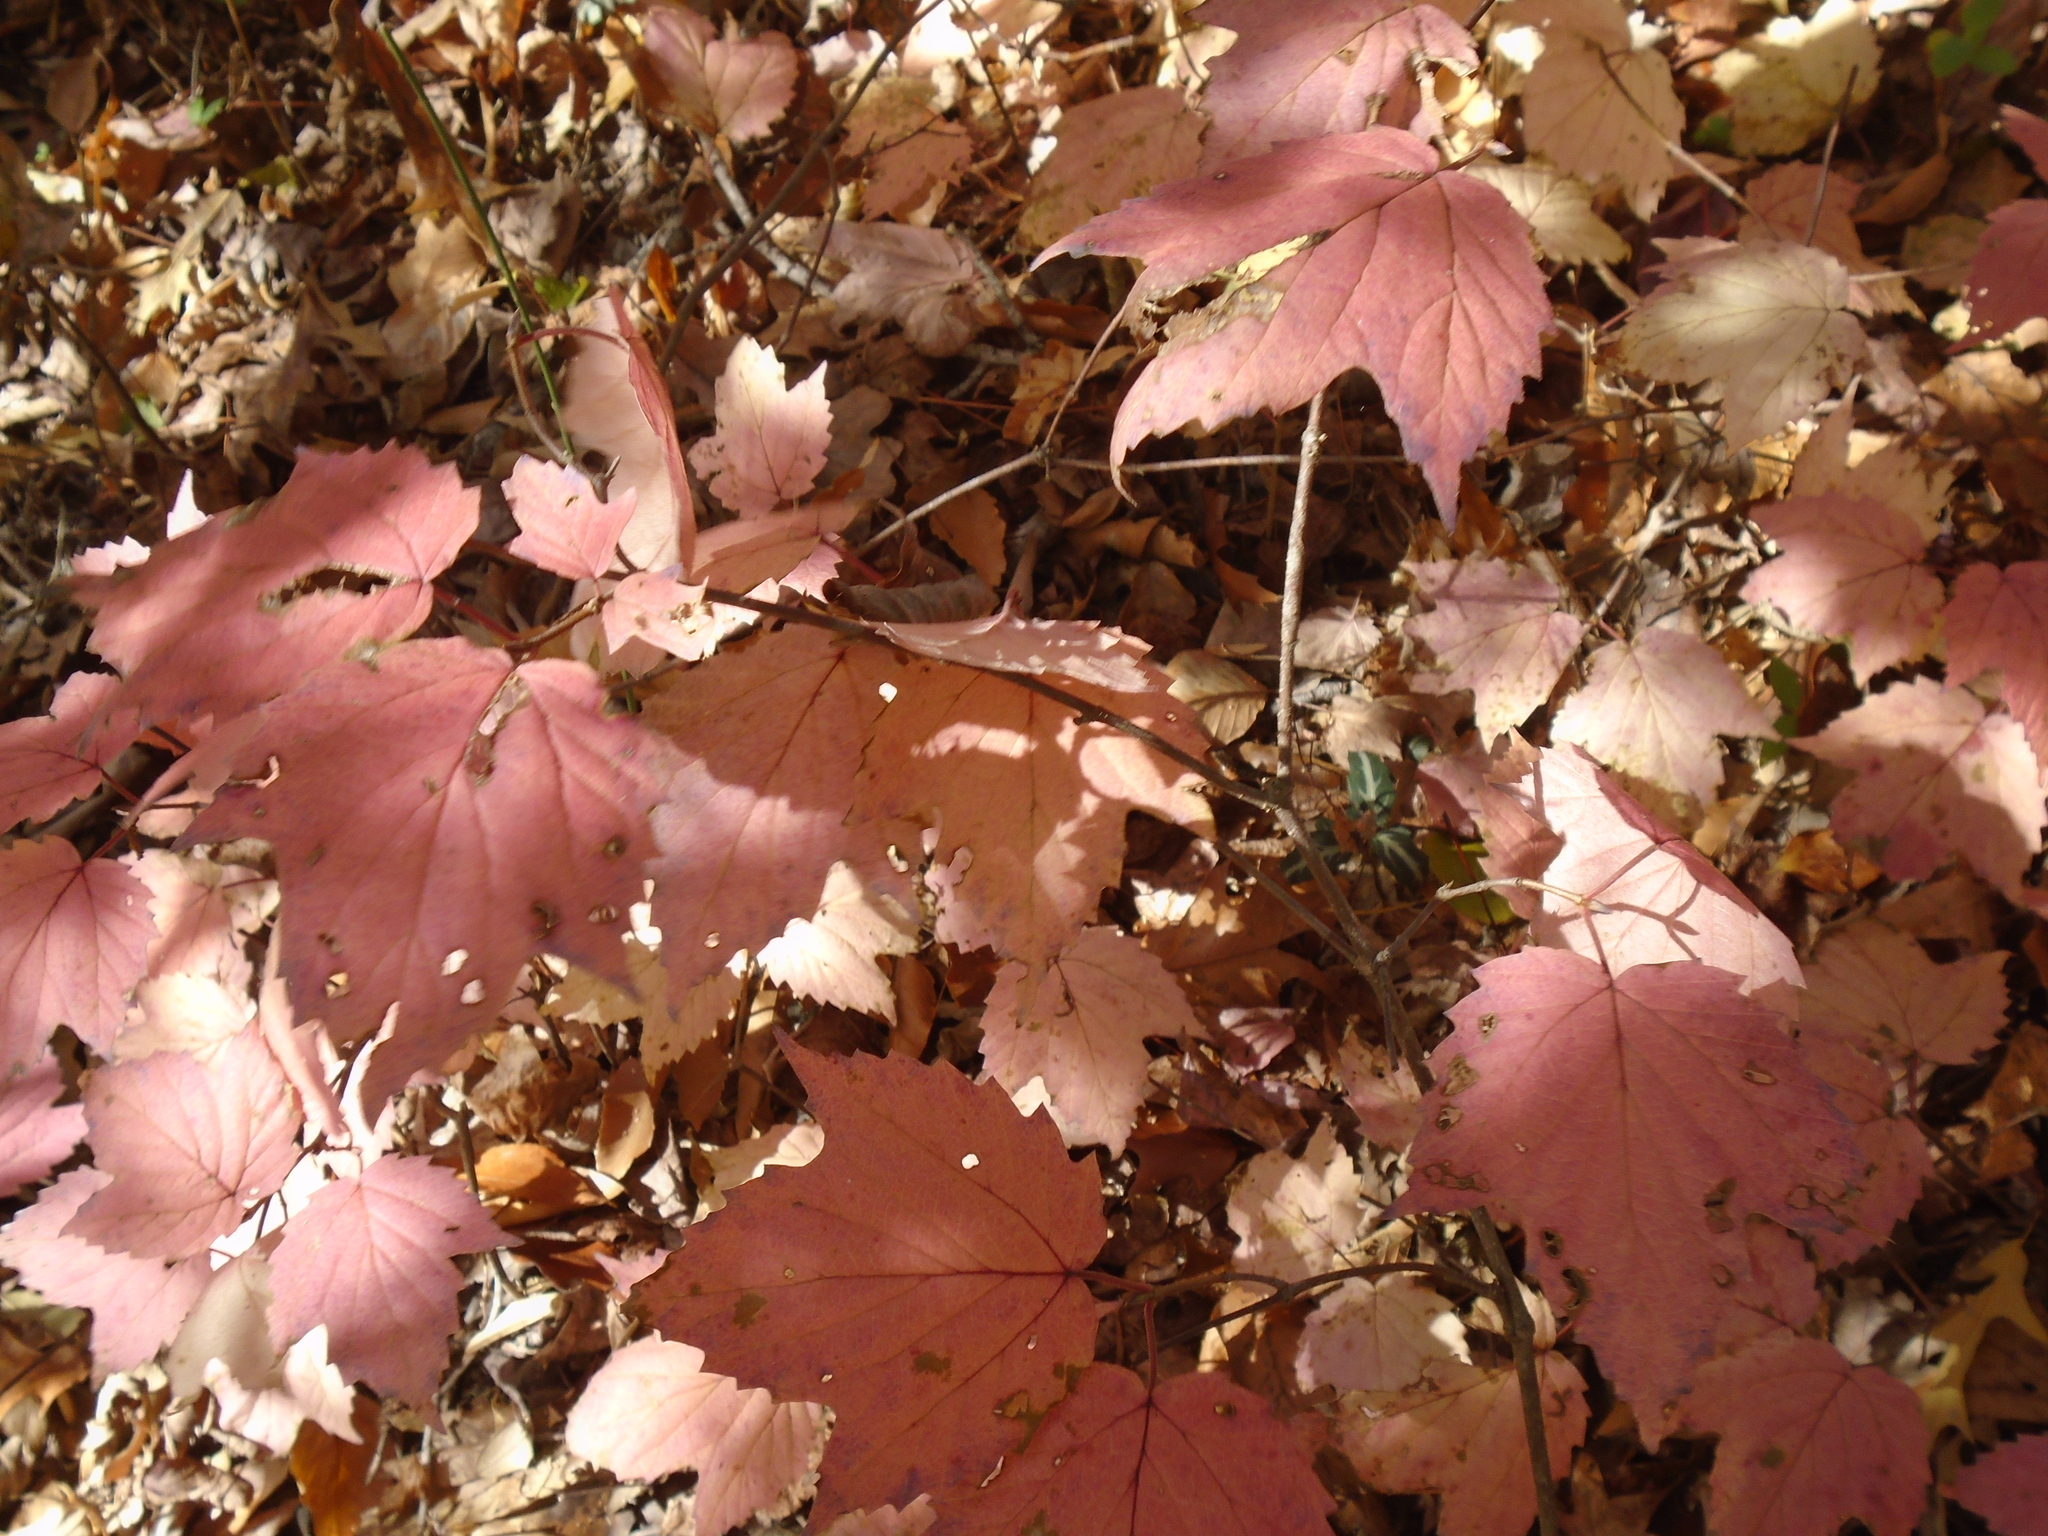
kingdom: Plantae
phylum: Tracheophyta
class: Magnoliopsida
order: Dipsacales
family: Viburnaceae
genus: Viburnum
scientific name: Viburnum acerifolium
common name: Dockmackie
